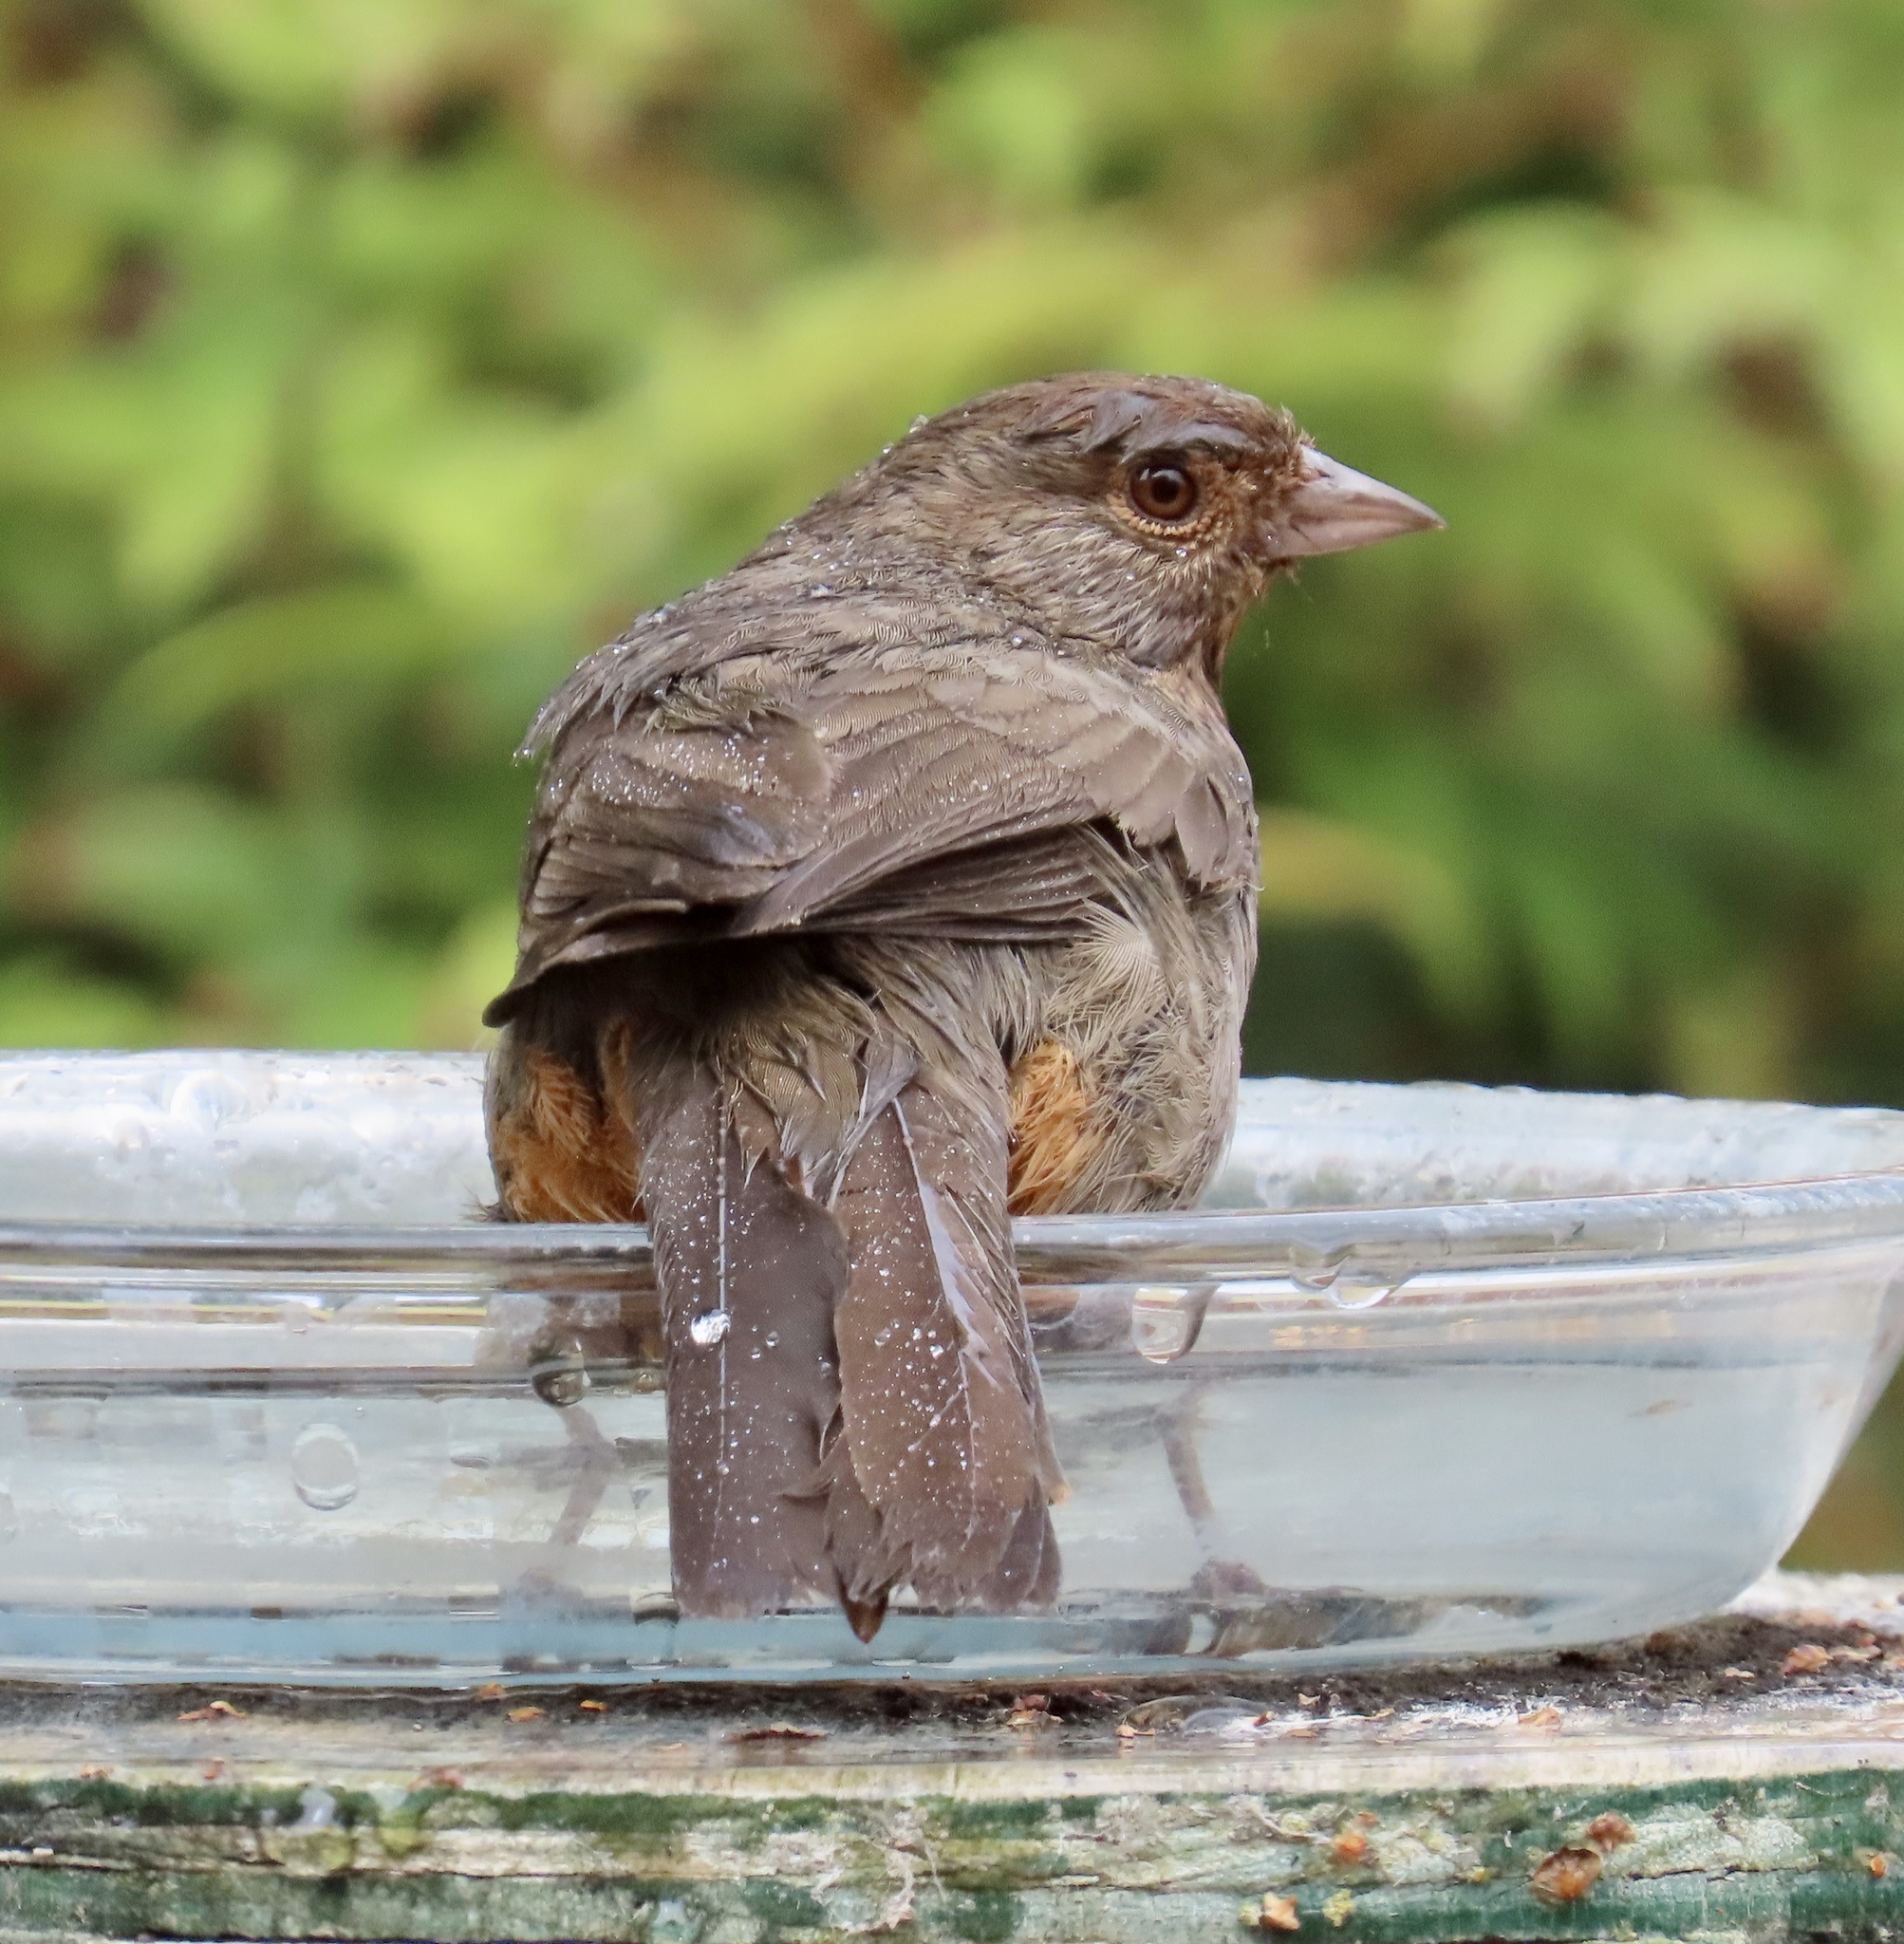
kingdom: Animalia
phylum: Chordata
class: Aves
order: Passeriformes
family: Passerellidae
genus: Melozone
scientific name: Melozone crissalis
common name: California towhee
